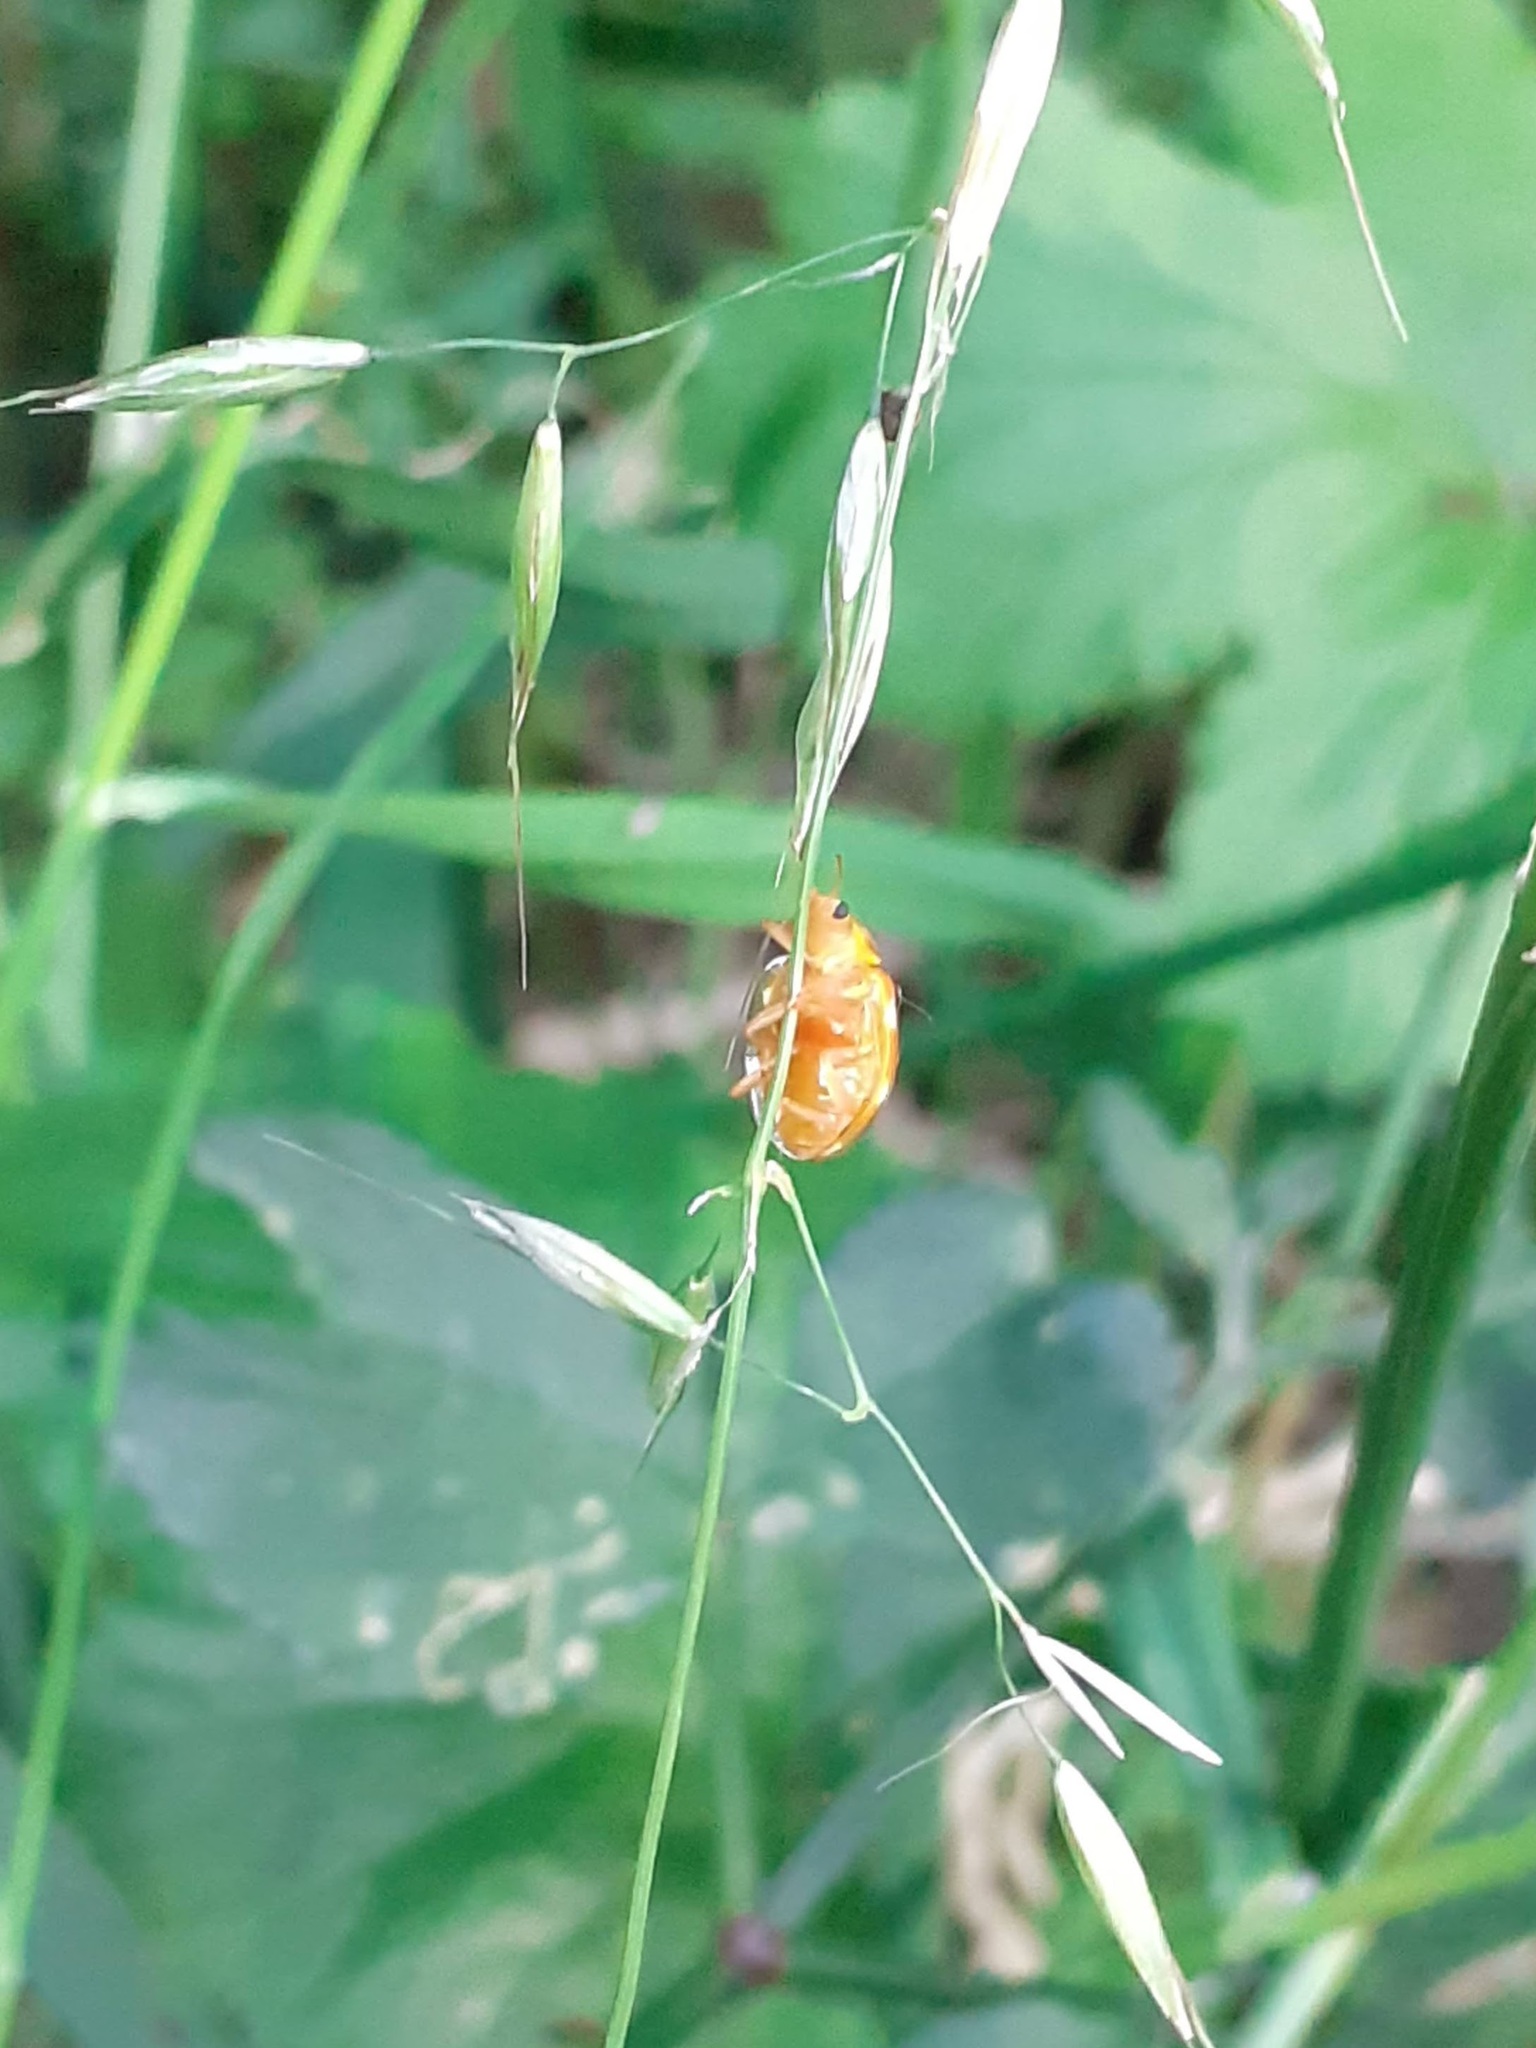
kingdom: Animalia
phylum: Arthropoda
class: Insecta
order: Coleoptera
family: Coccinellidae
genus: Halyzia
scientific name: Halyzia sedecimguttata
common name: Orange ladybird
